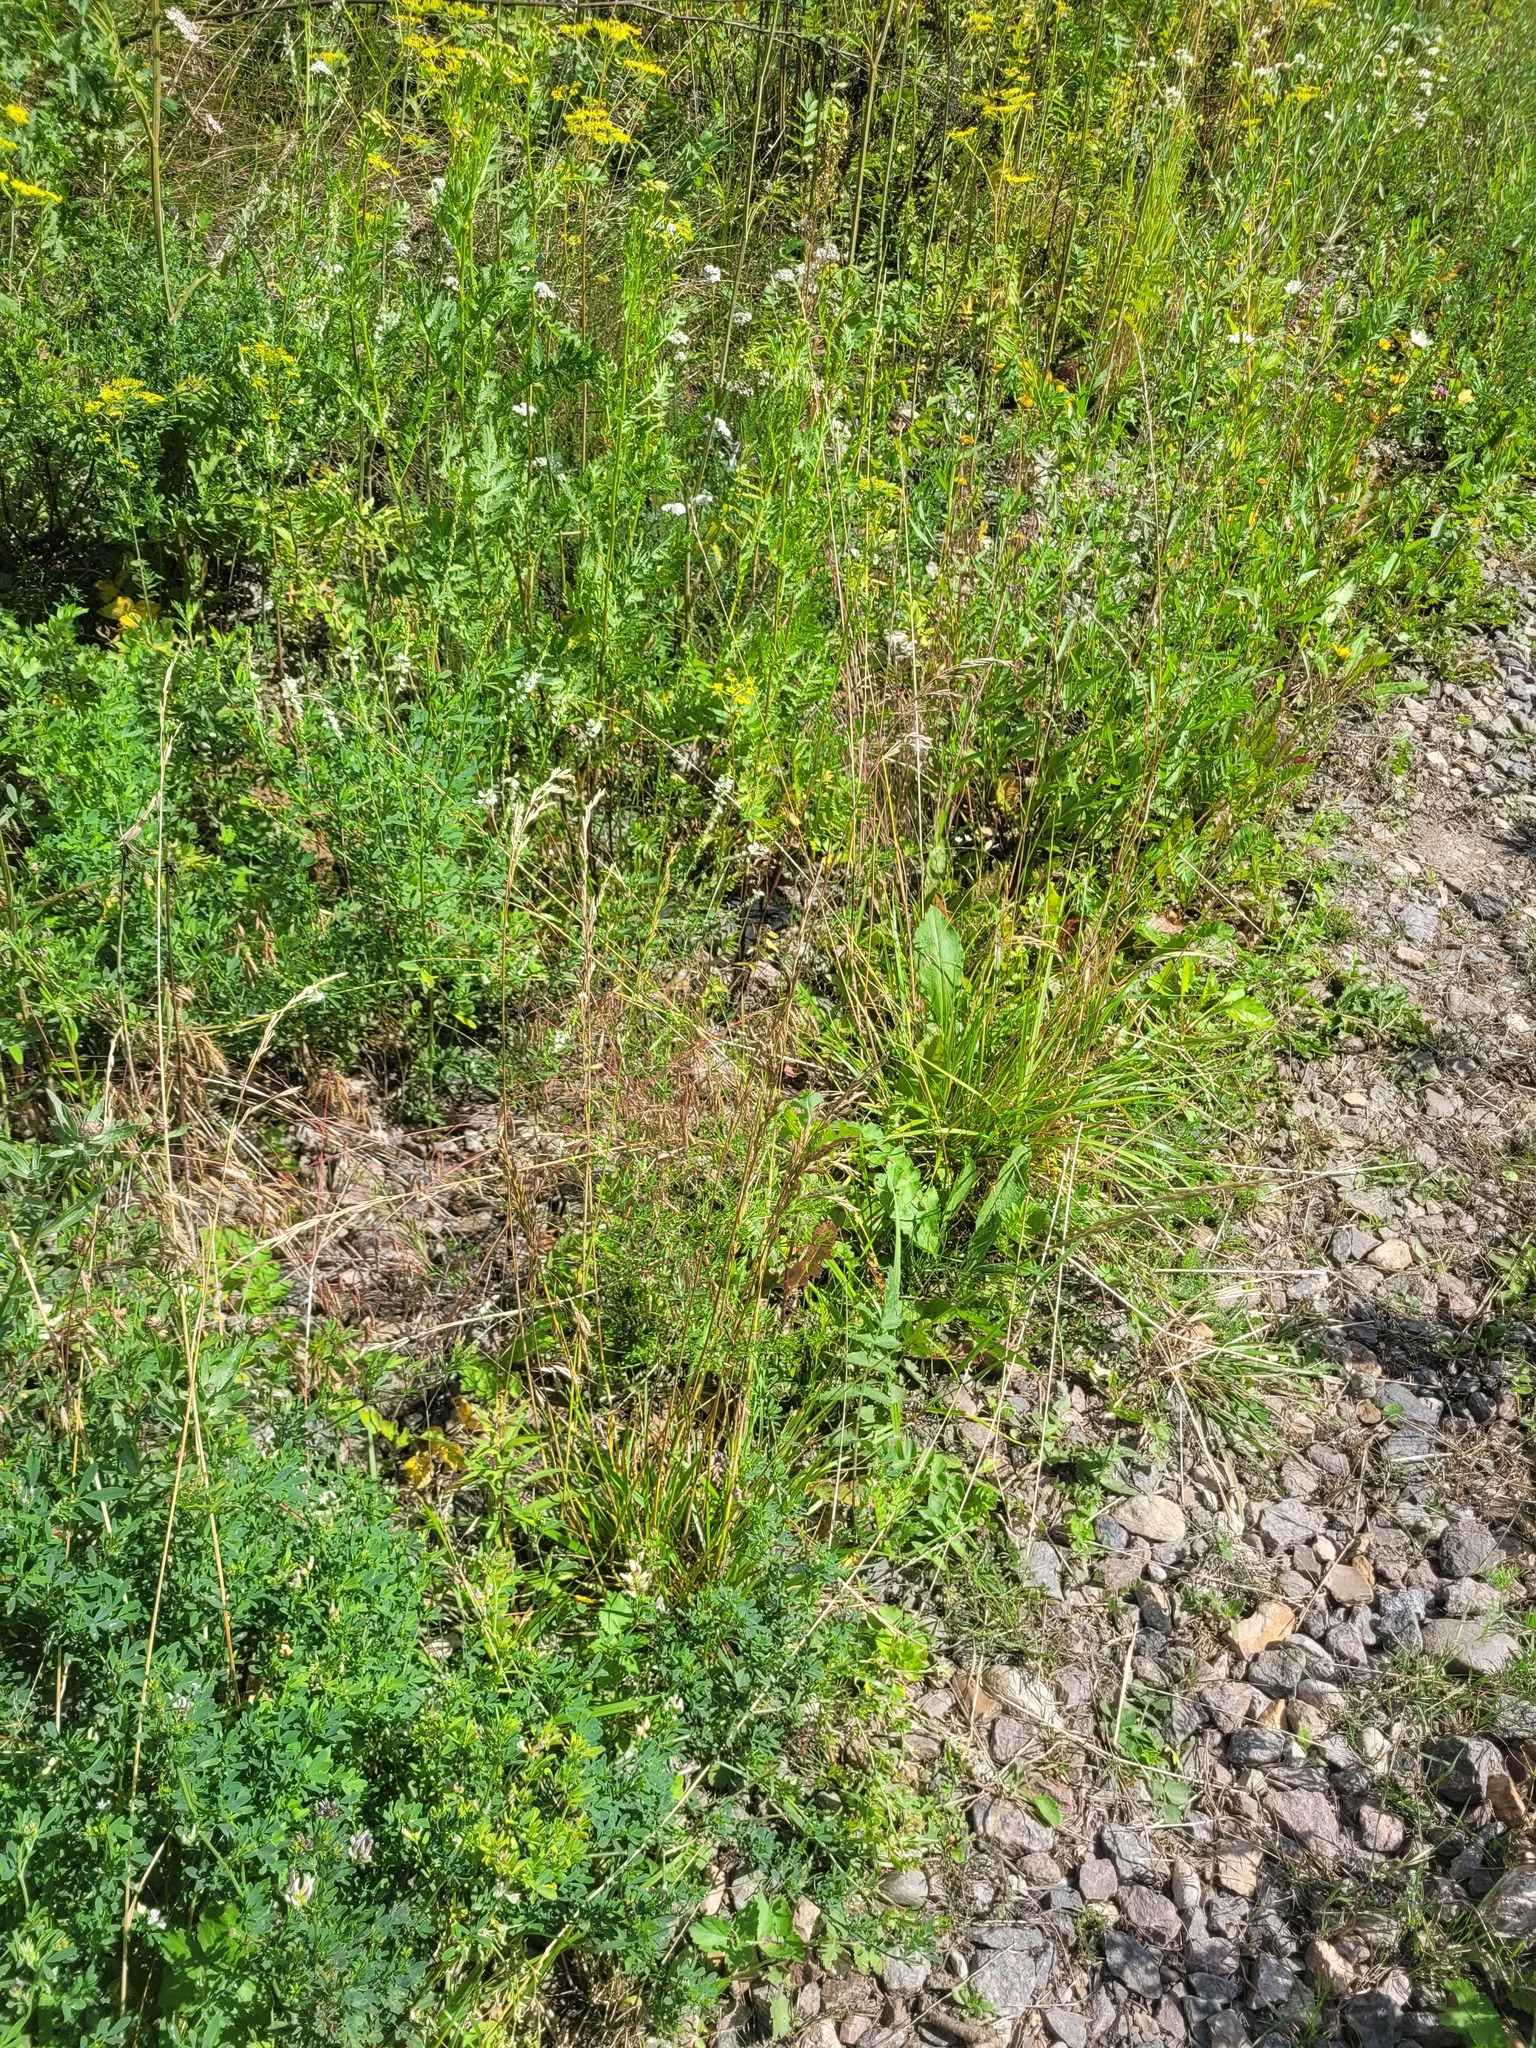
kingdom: Plantae
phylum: Tracheophyta
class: Liliopsida
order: Poales
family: Poaceae
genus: Lolium
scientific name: Lolium arundinaceum
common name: Reed fescue
